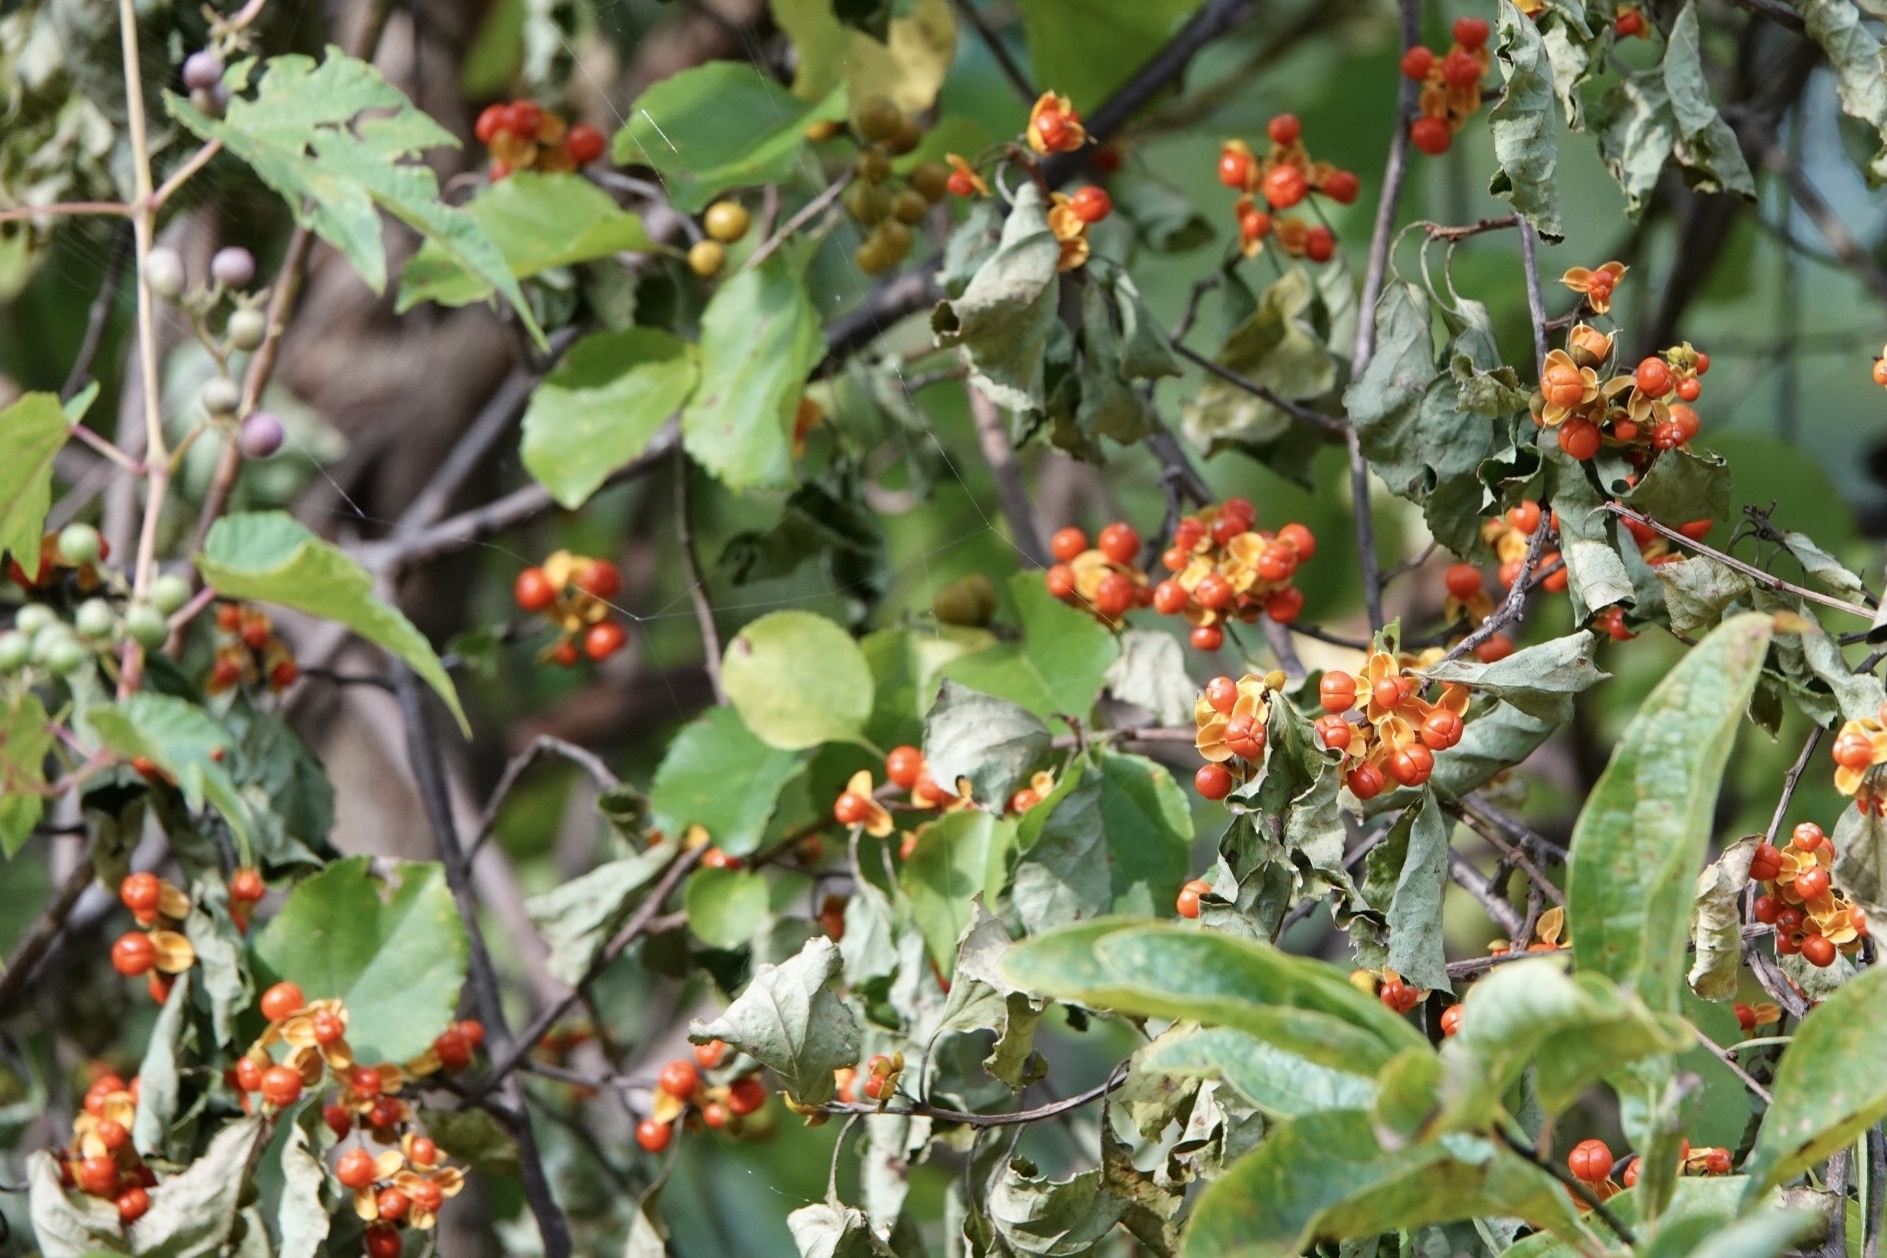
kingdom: Plantae
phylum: Tracheophyta
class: Magnoliopsida
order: Celastrales
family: Celastraceae
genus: Celastrus
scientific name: Celastrus orbiculatus
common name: Oriental bittersweet
